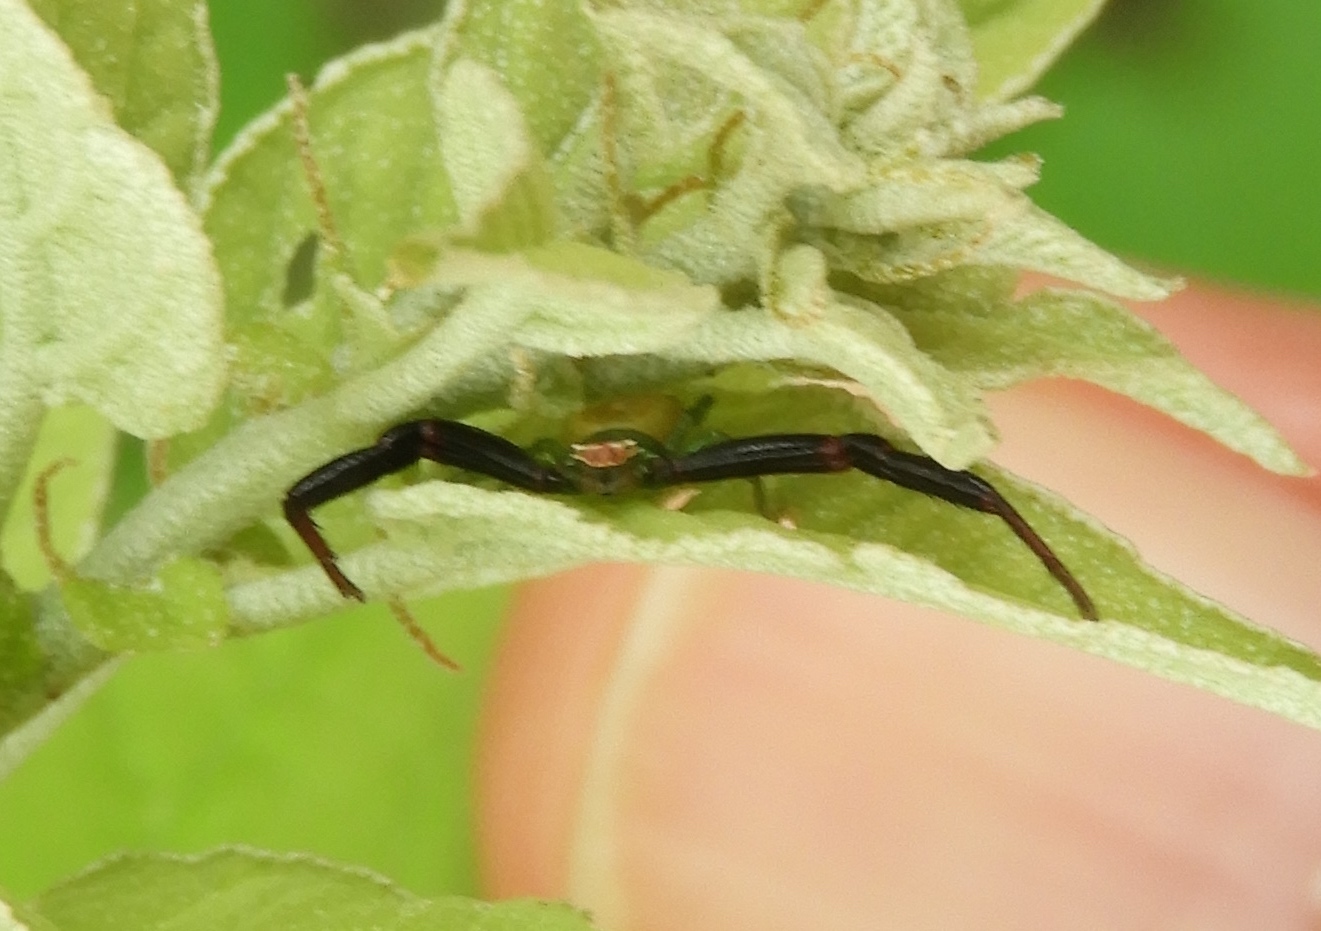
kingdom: Animalia
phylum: Arthropoda
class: Arachnida
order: Araneae
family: Thomisidae
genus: Misumenoides
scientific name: Misumenoides
